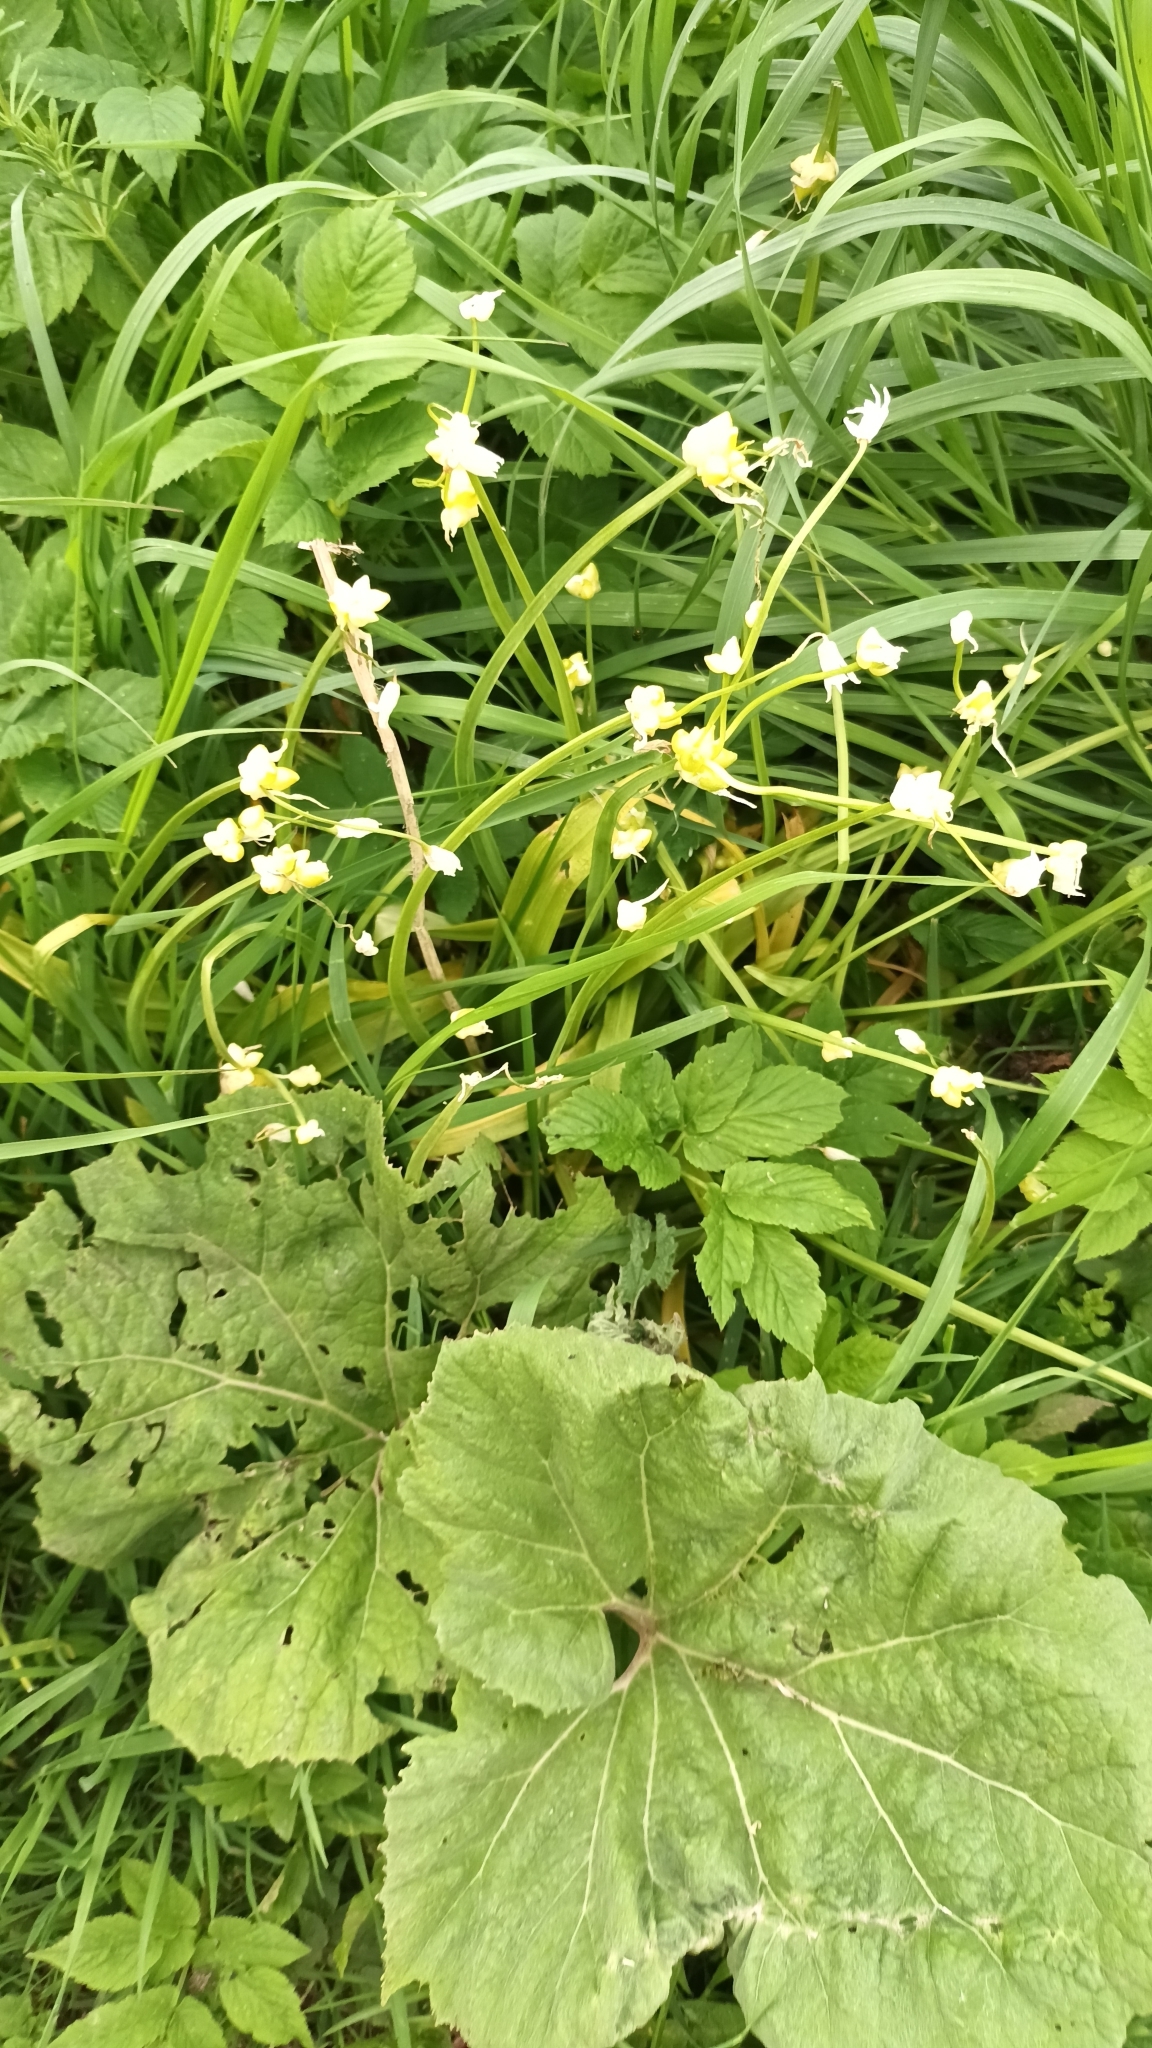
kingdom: Plantae
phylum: Tracheophyta
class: Liliopsida
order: Asparagales
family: Amaryllidaceae
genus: Allium
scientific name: Allium paradoxum
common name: Few-flowered garlic
